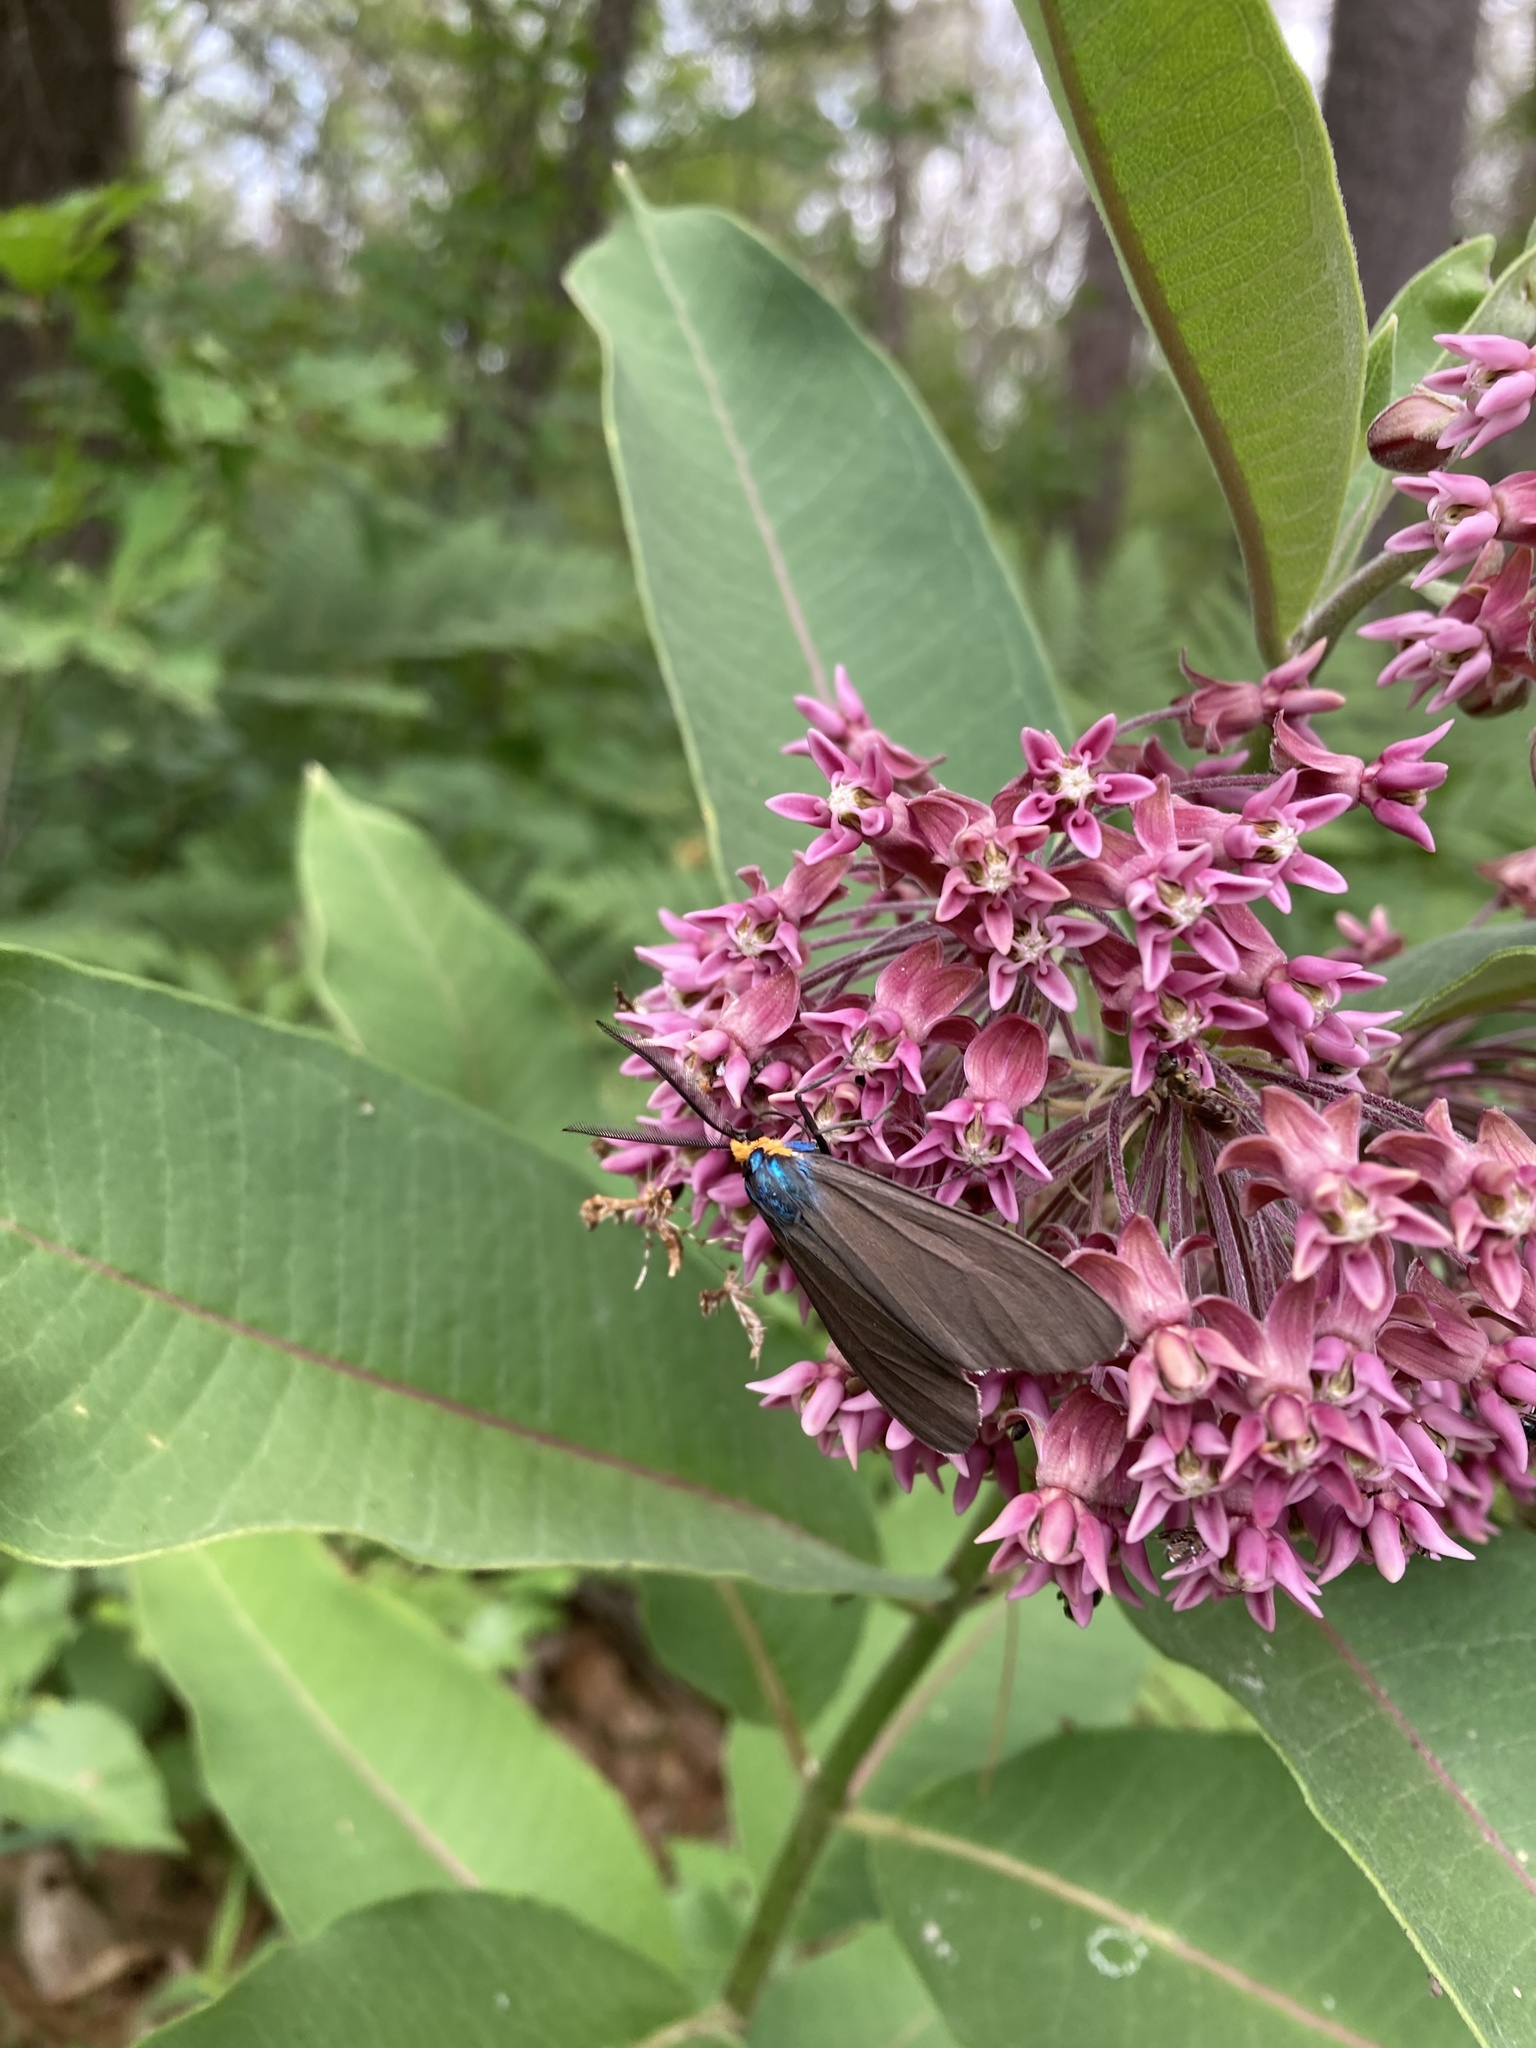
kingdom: Animalia
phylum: Arthropoda
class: Insecta
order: Lepidoptera
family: Erebidae
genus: Ctenucha
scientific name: Ctenucha virginica
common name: Virginia ctenucha moth
